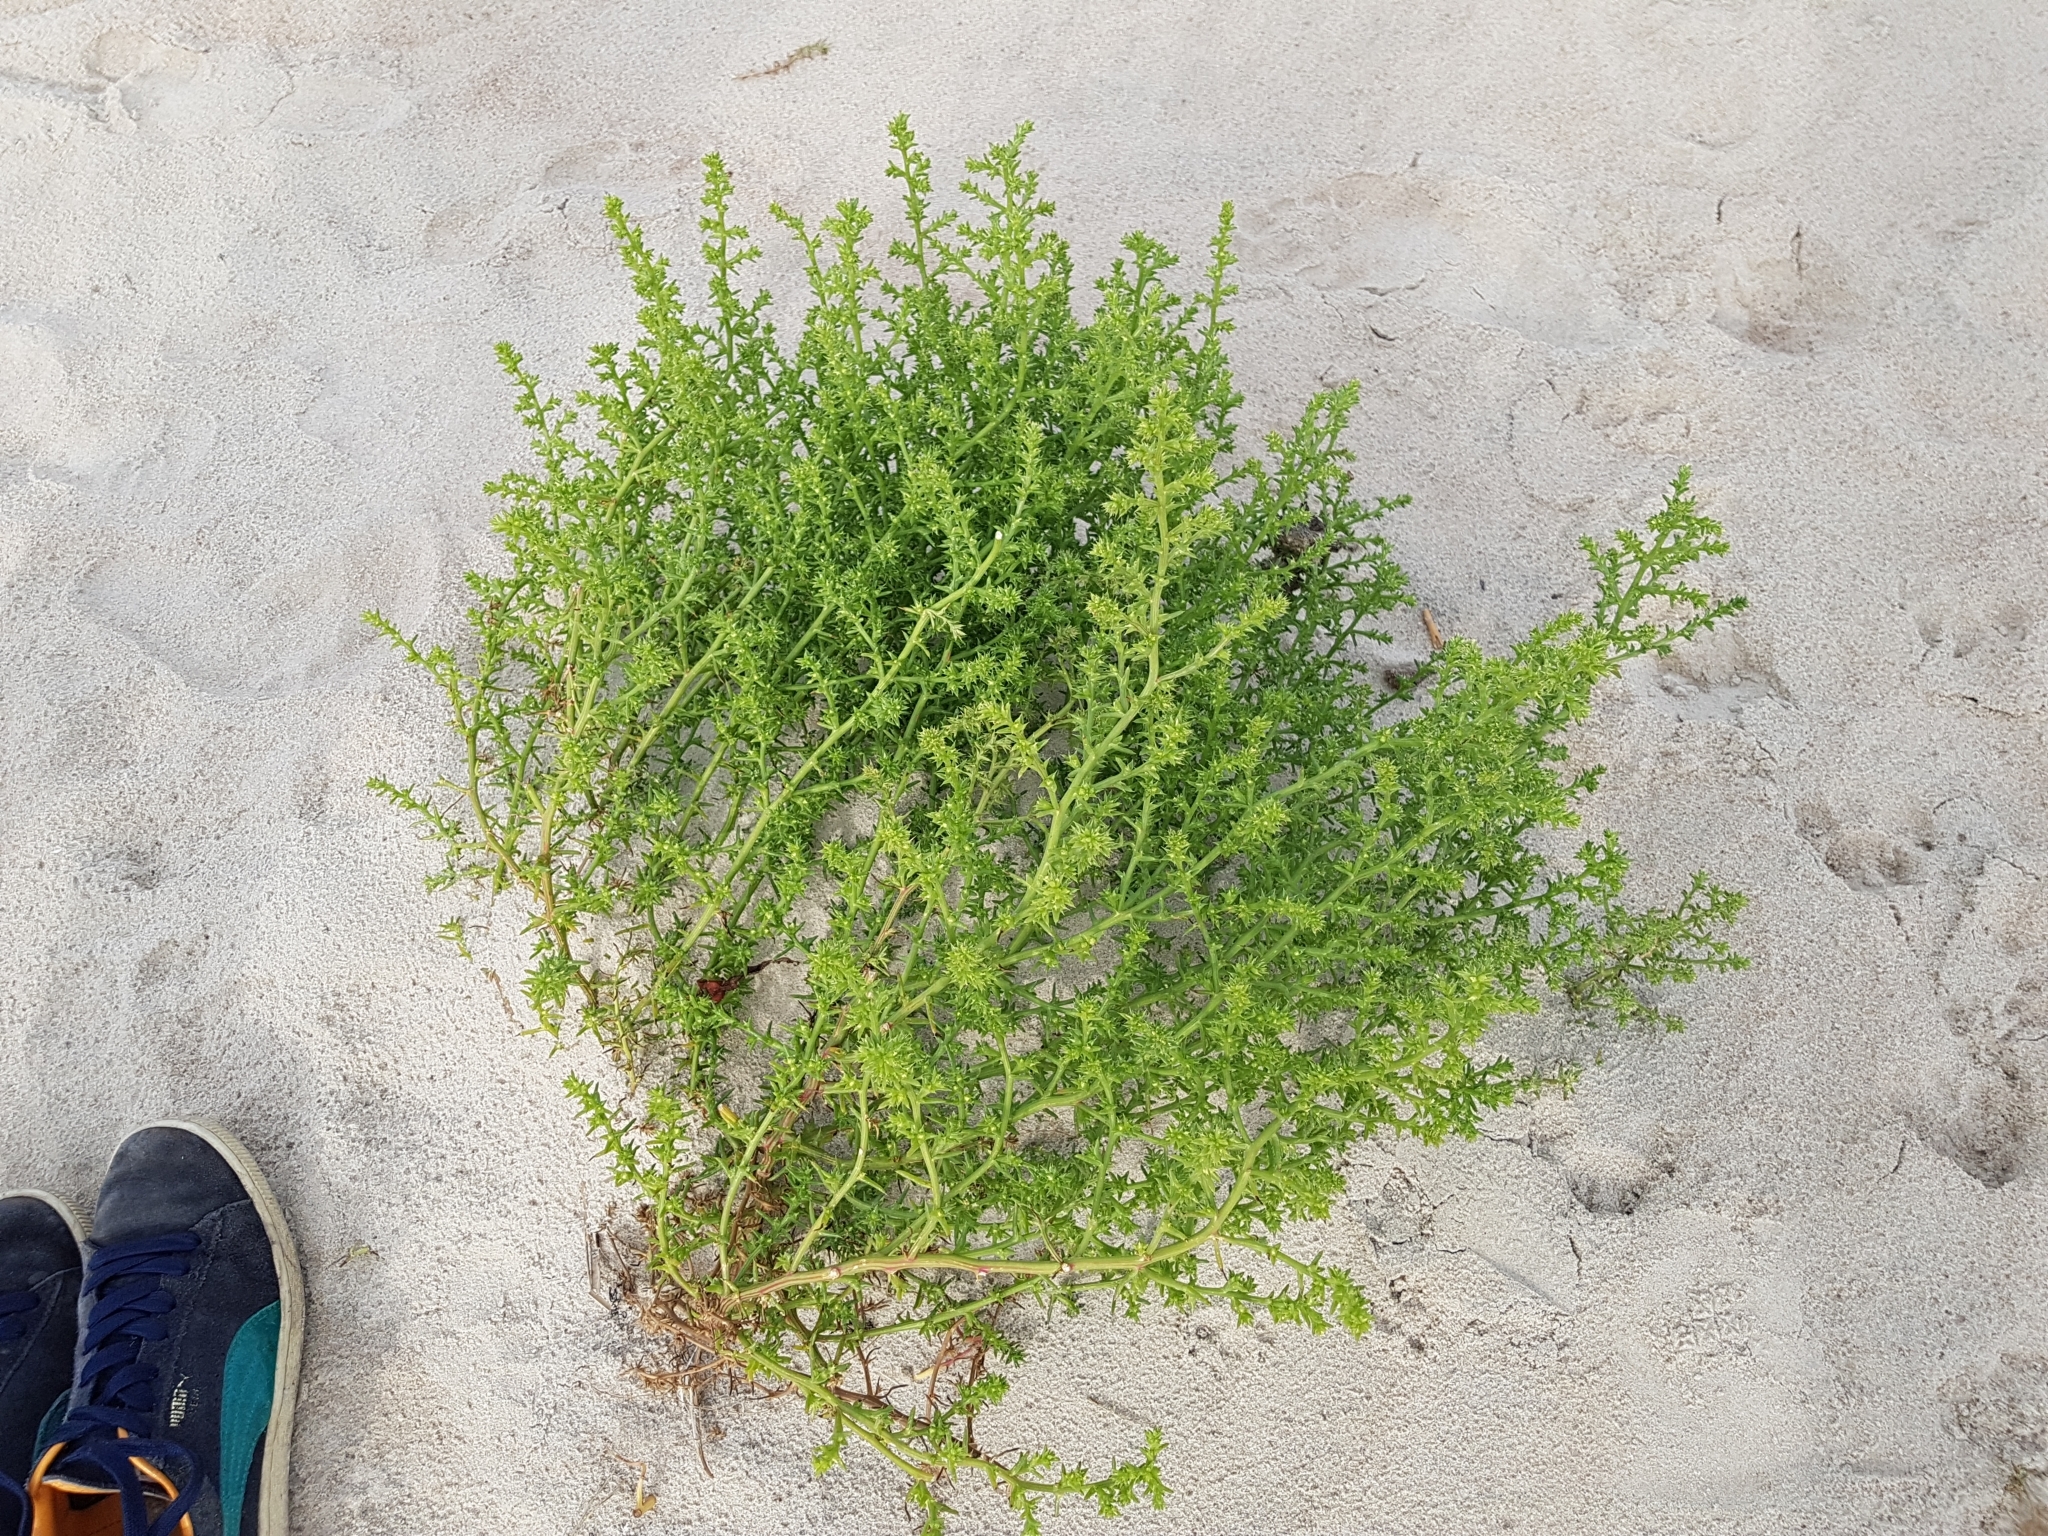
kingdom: Plantae
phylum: Tracheophyta
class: Magnoliopsida
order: Caryophyllales
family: Amaranthaceae
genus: Salsola
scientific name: Salsola kali
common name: Saltwort
